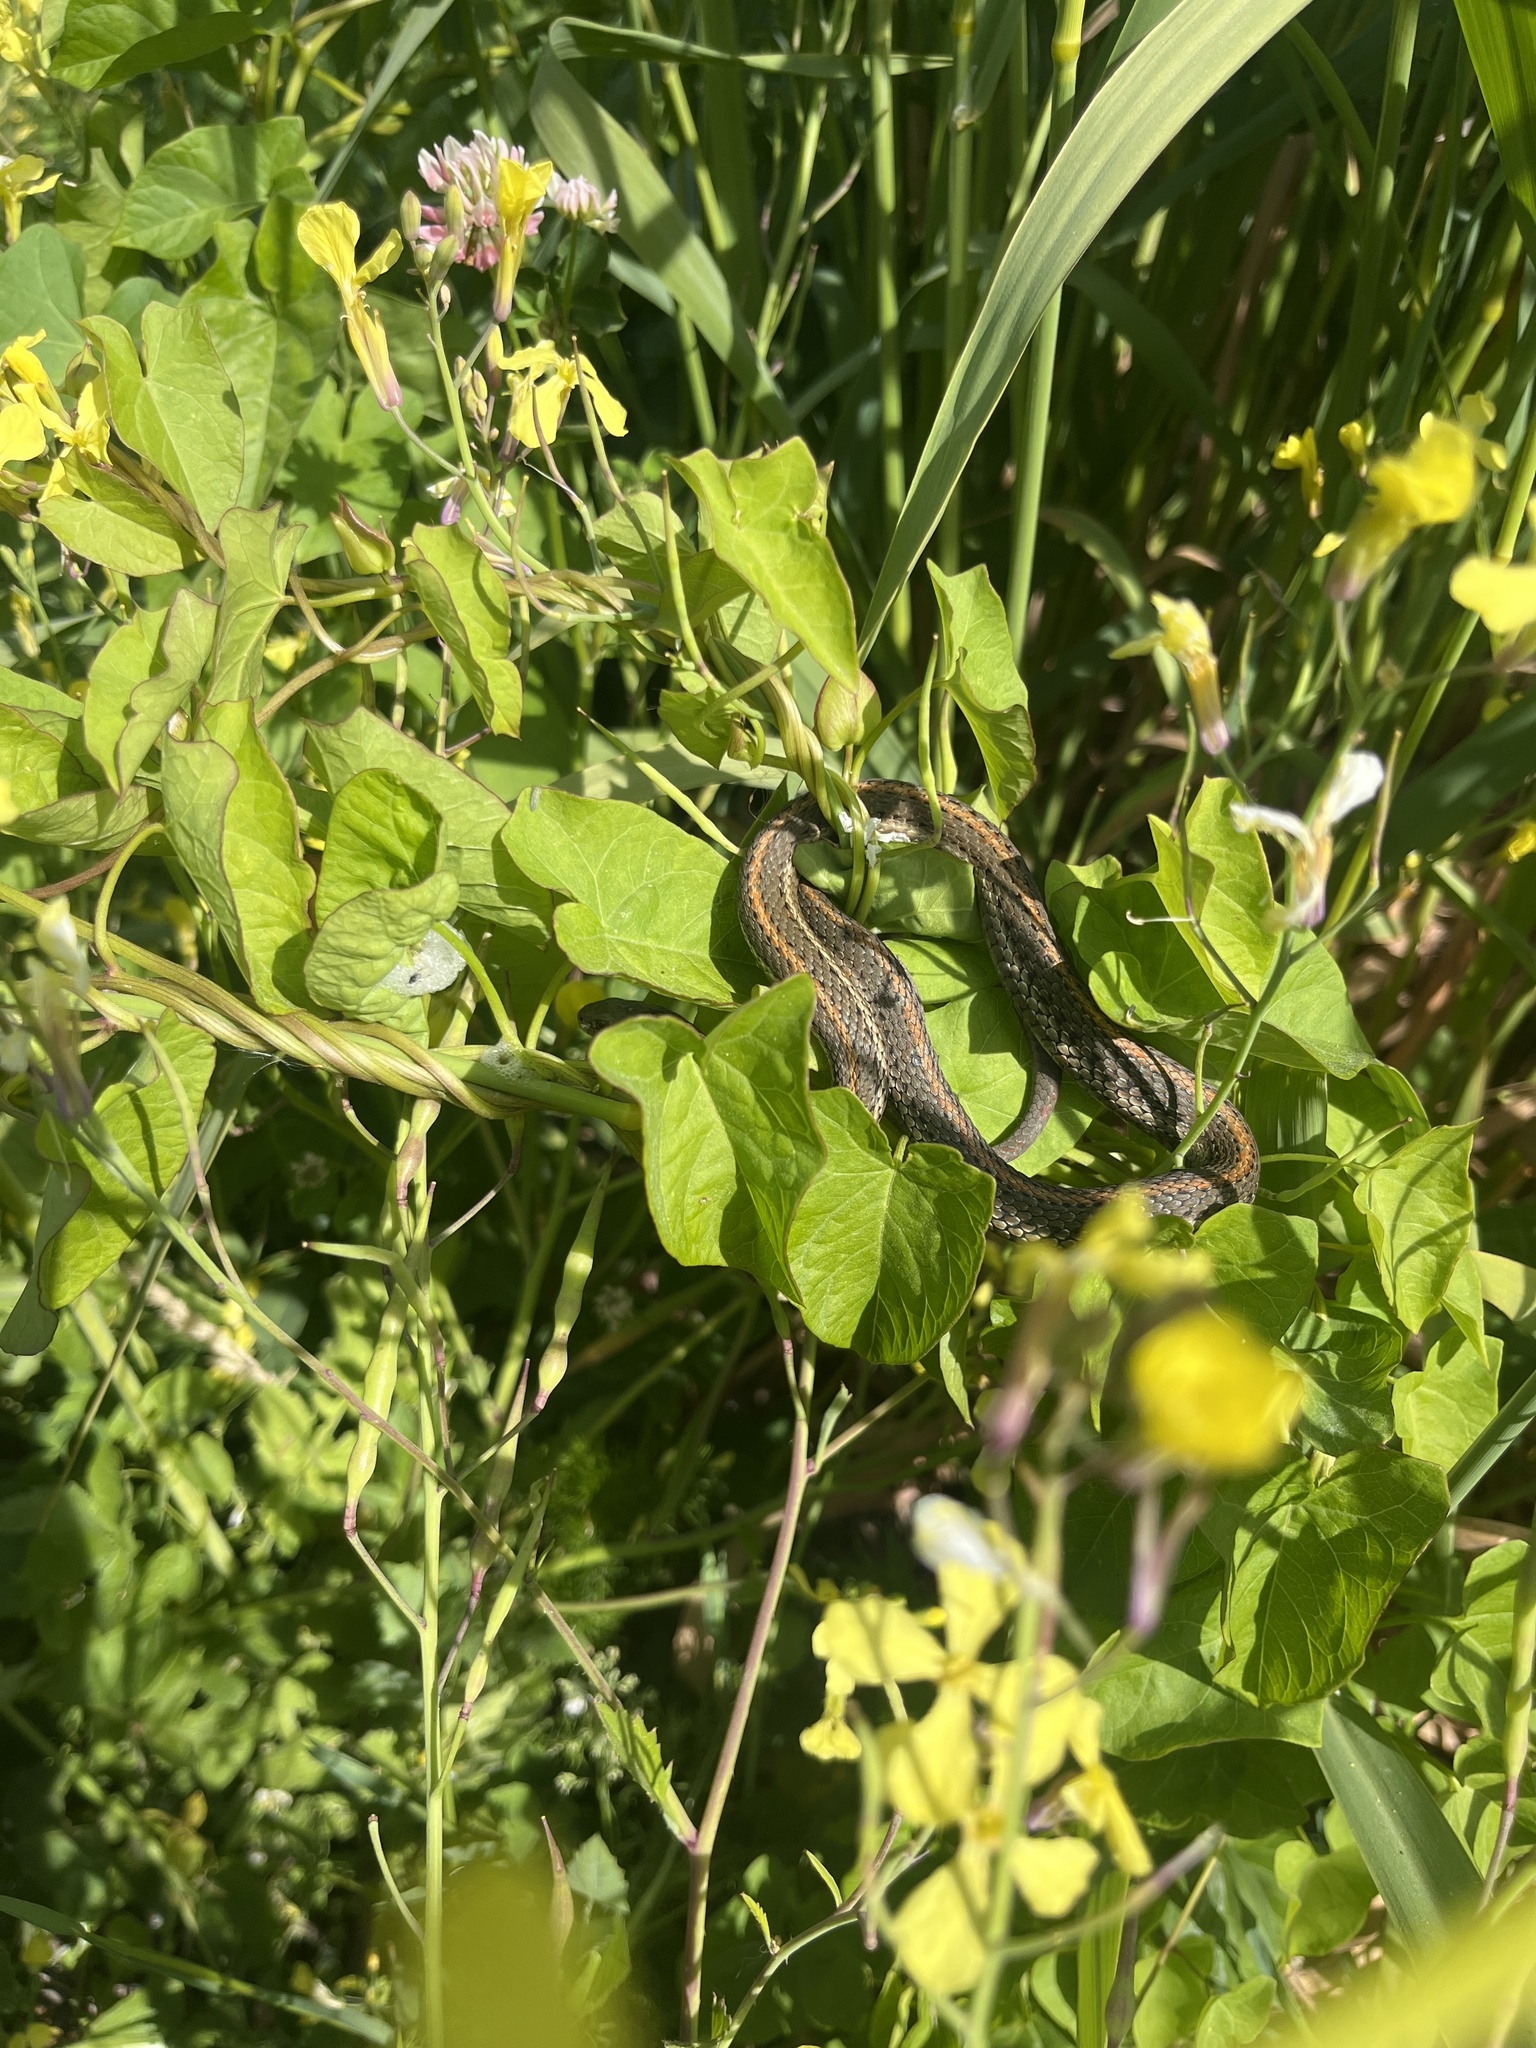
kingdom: Animalia
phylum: Chordata
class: Squamata
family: Colubridae
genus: Thamnophis
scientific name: Thamnophis ordinoides
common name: Northwestern garter snake
